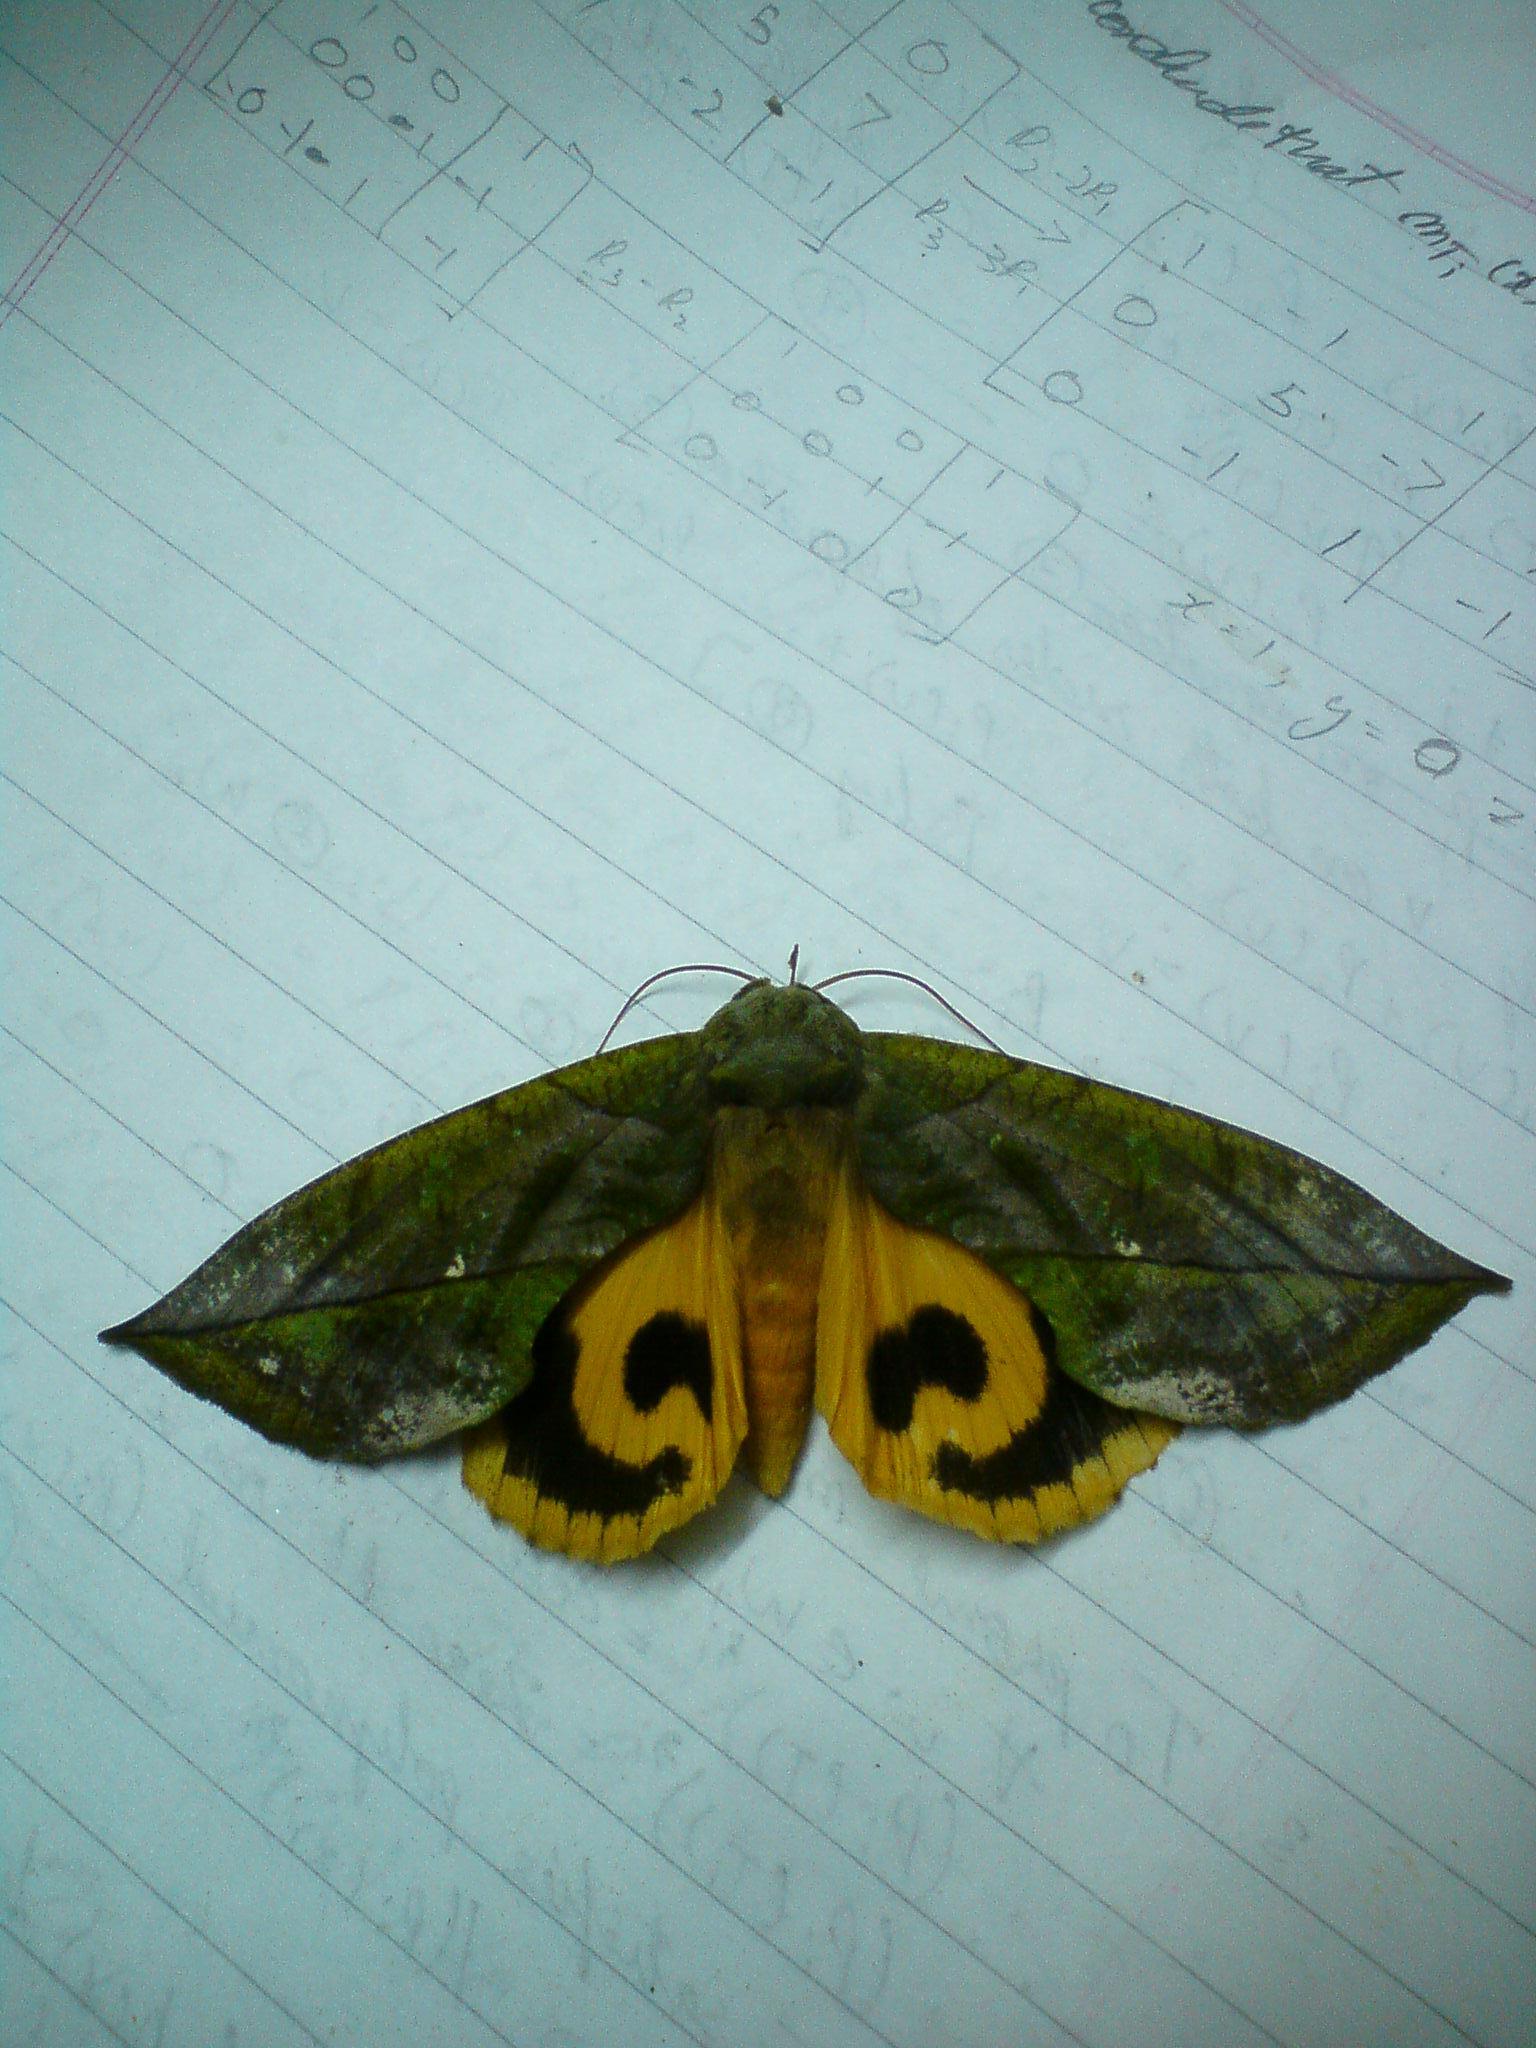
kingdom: Animalia
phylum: Arthropoda
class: Insecta
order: Lepidoptera
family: Erebidae
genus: Eudocima
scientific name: Eudocima sikhimensis
